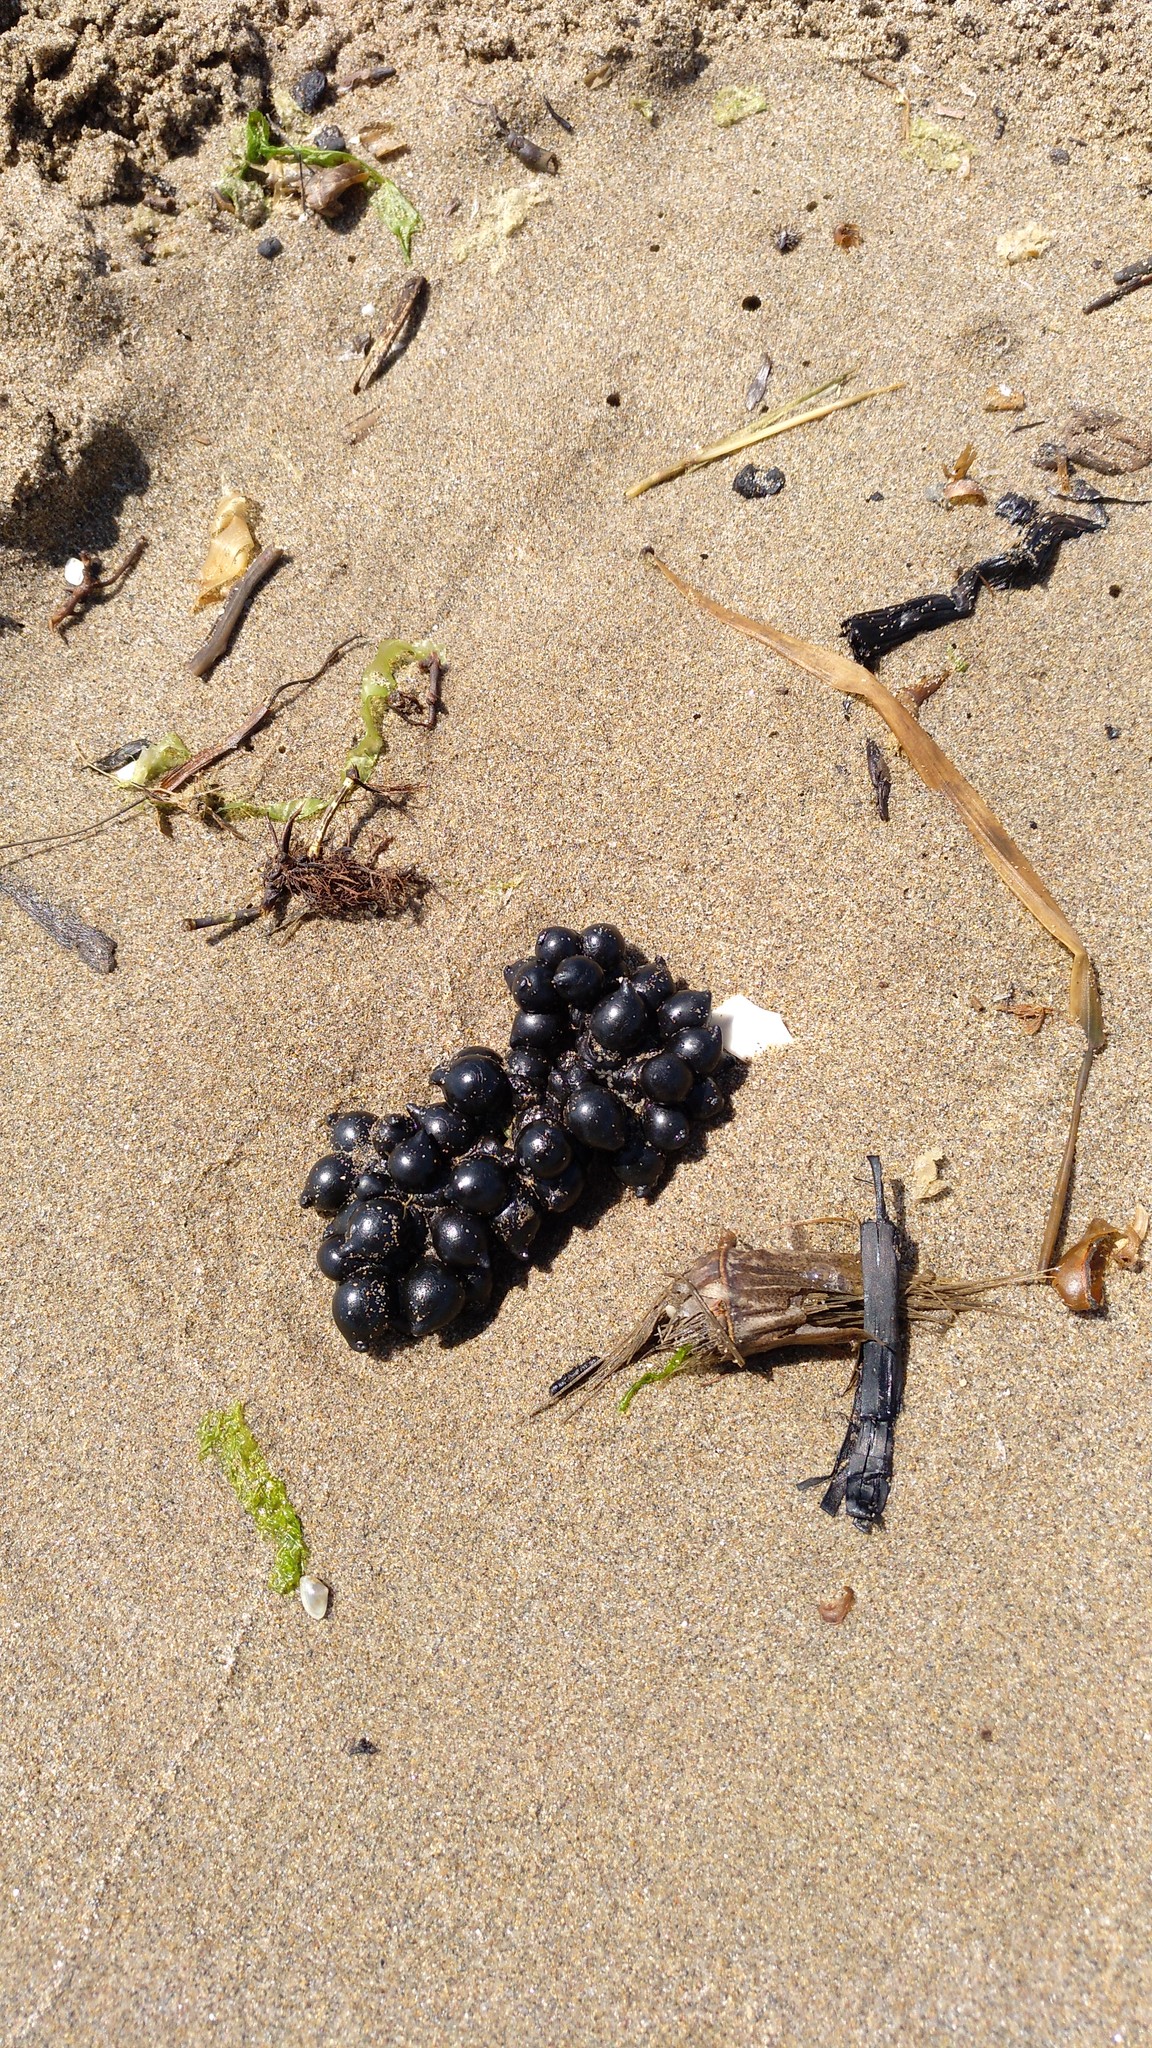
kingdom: Animalia
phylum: Mollusca
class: Cephalopoda
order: Sepiida
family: Sepiidae
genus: Sepia
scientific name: Sepia officinalis
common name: Common cuttlefish
